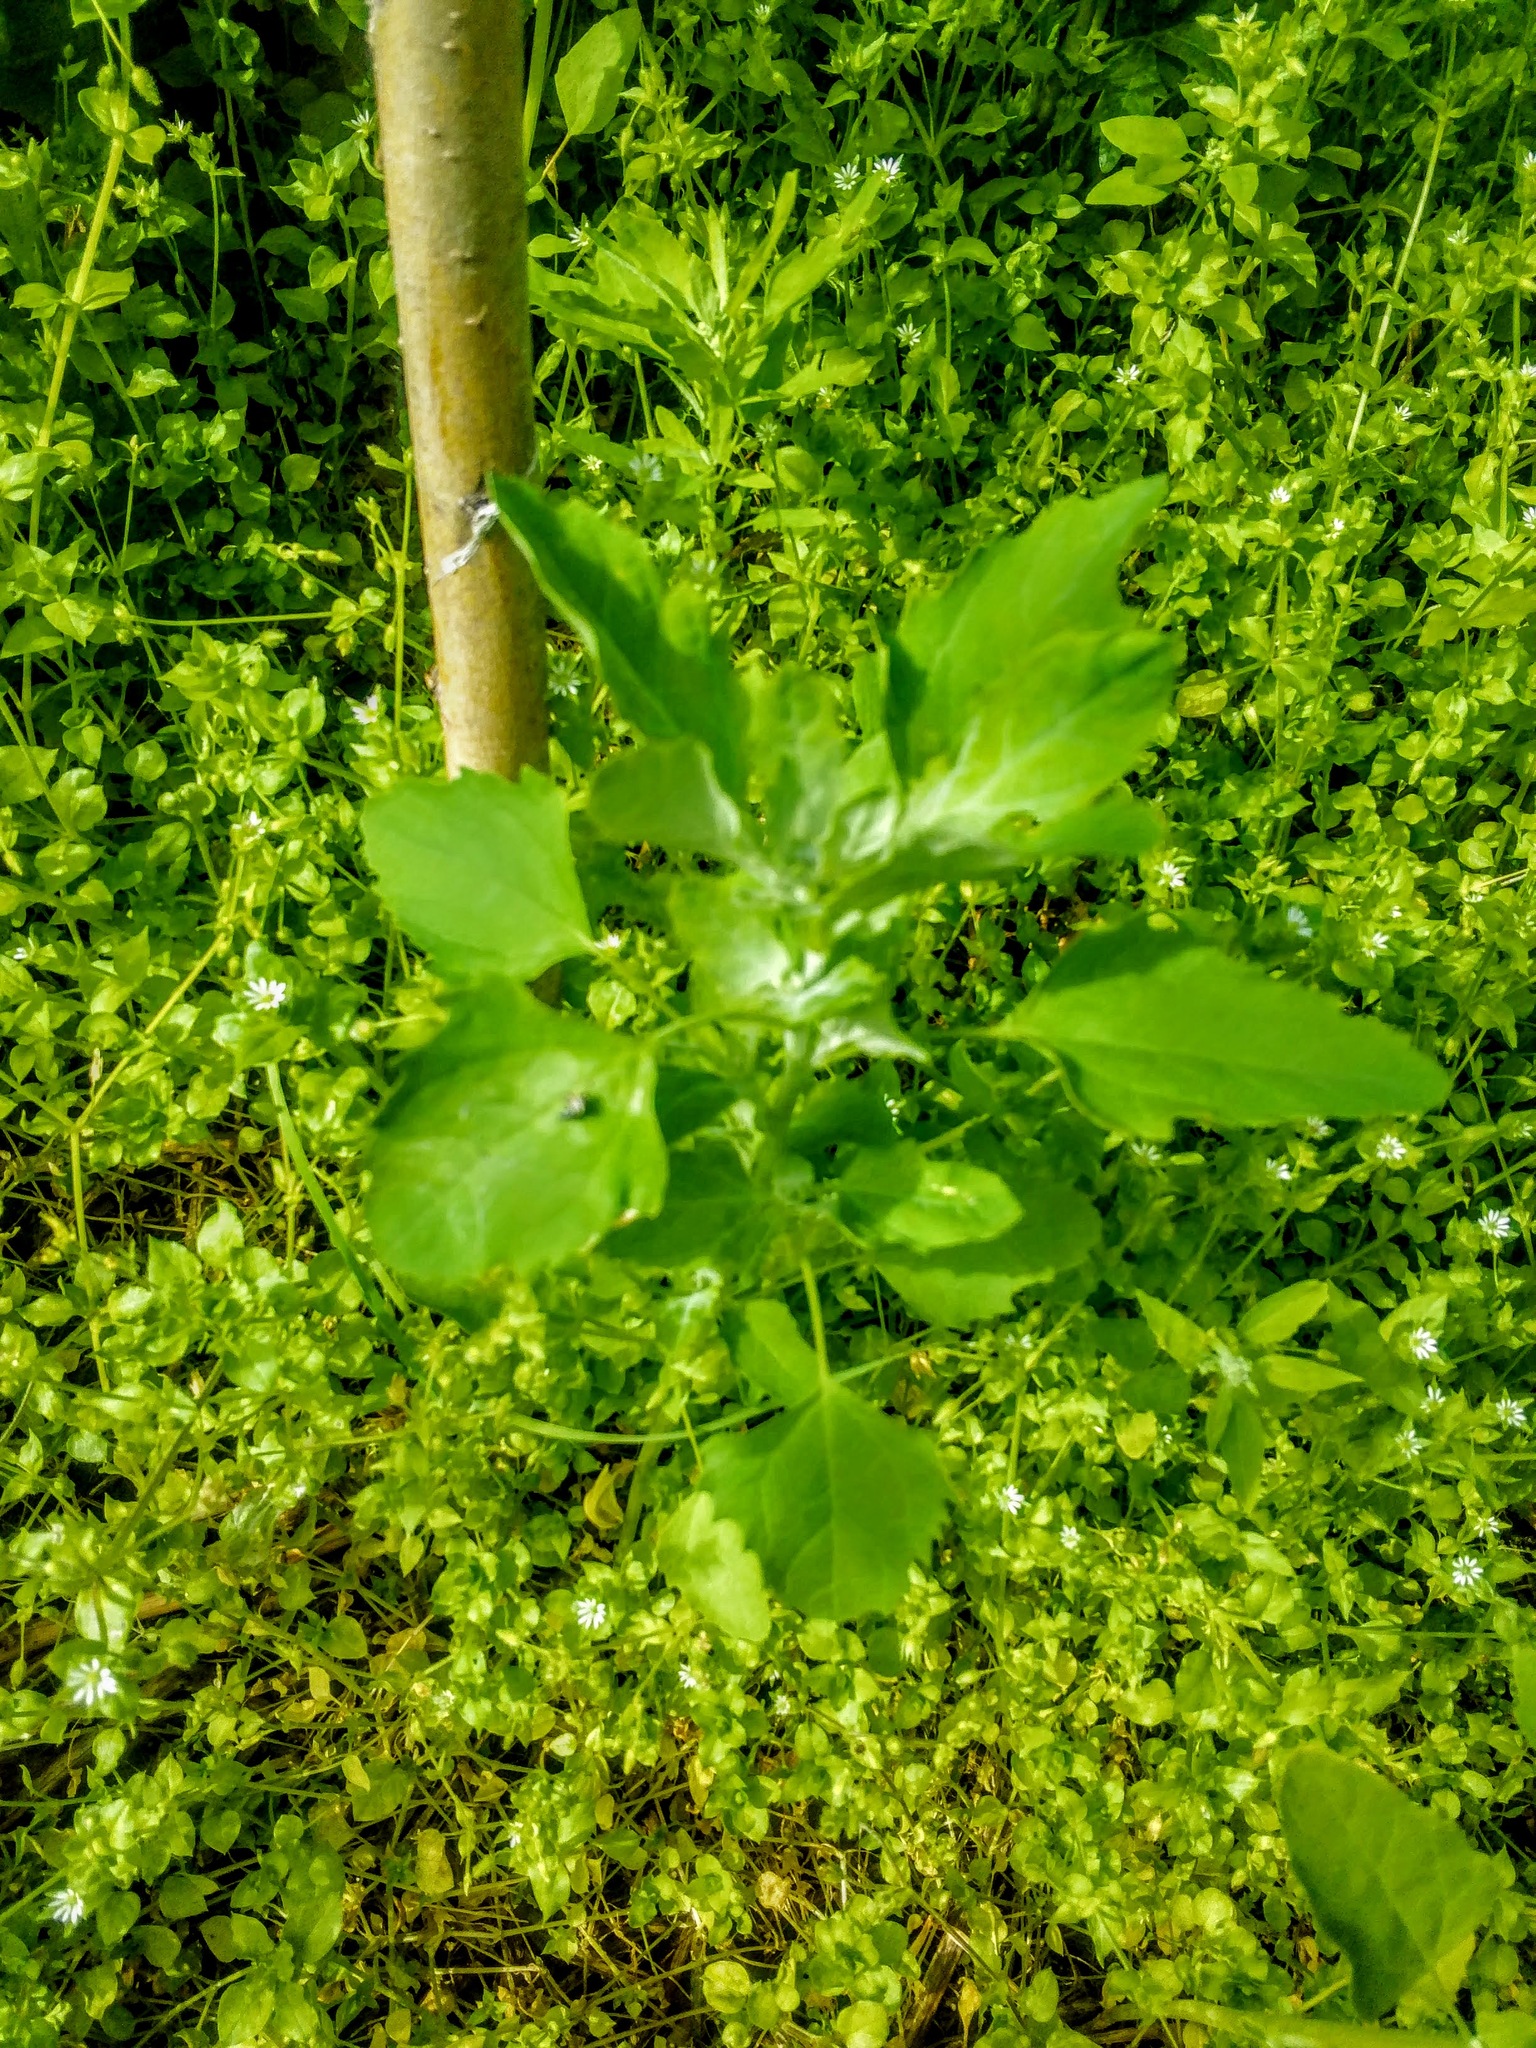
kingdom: Plantae
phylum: Tracheophyta
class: Magnoliopsida
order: Caryophyllales
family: Amaranthaceae
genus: Chenopodium
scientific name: Chenopodium album
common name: Fat-hen
